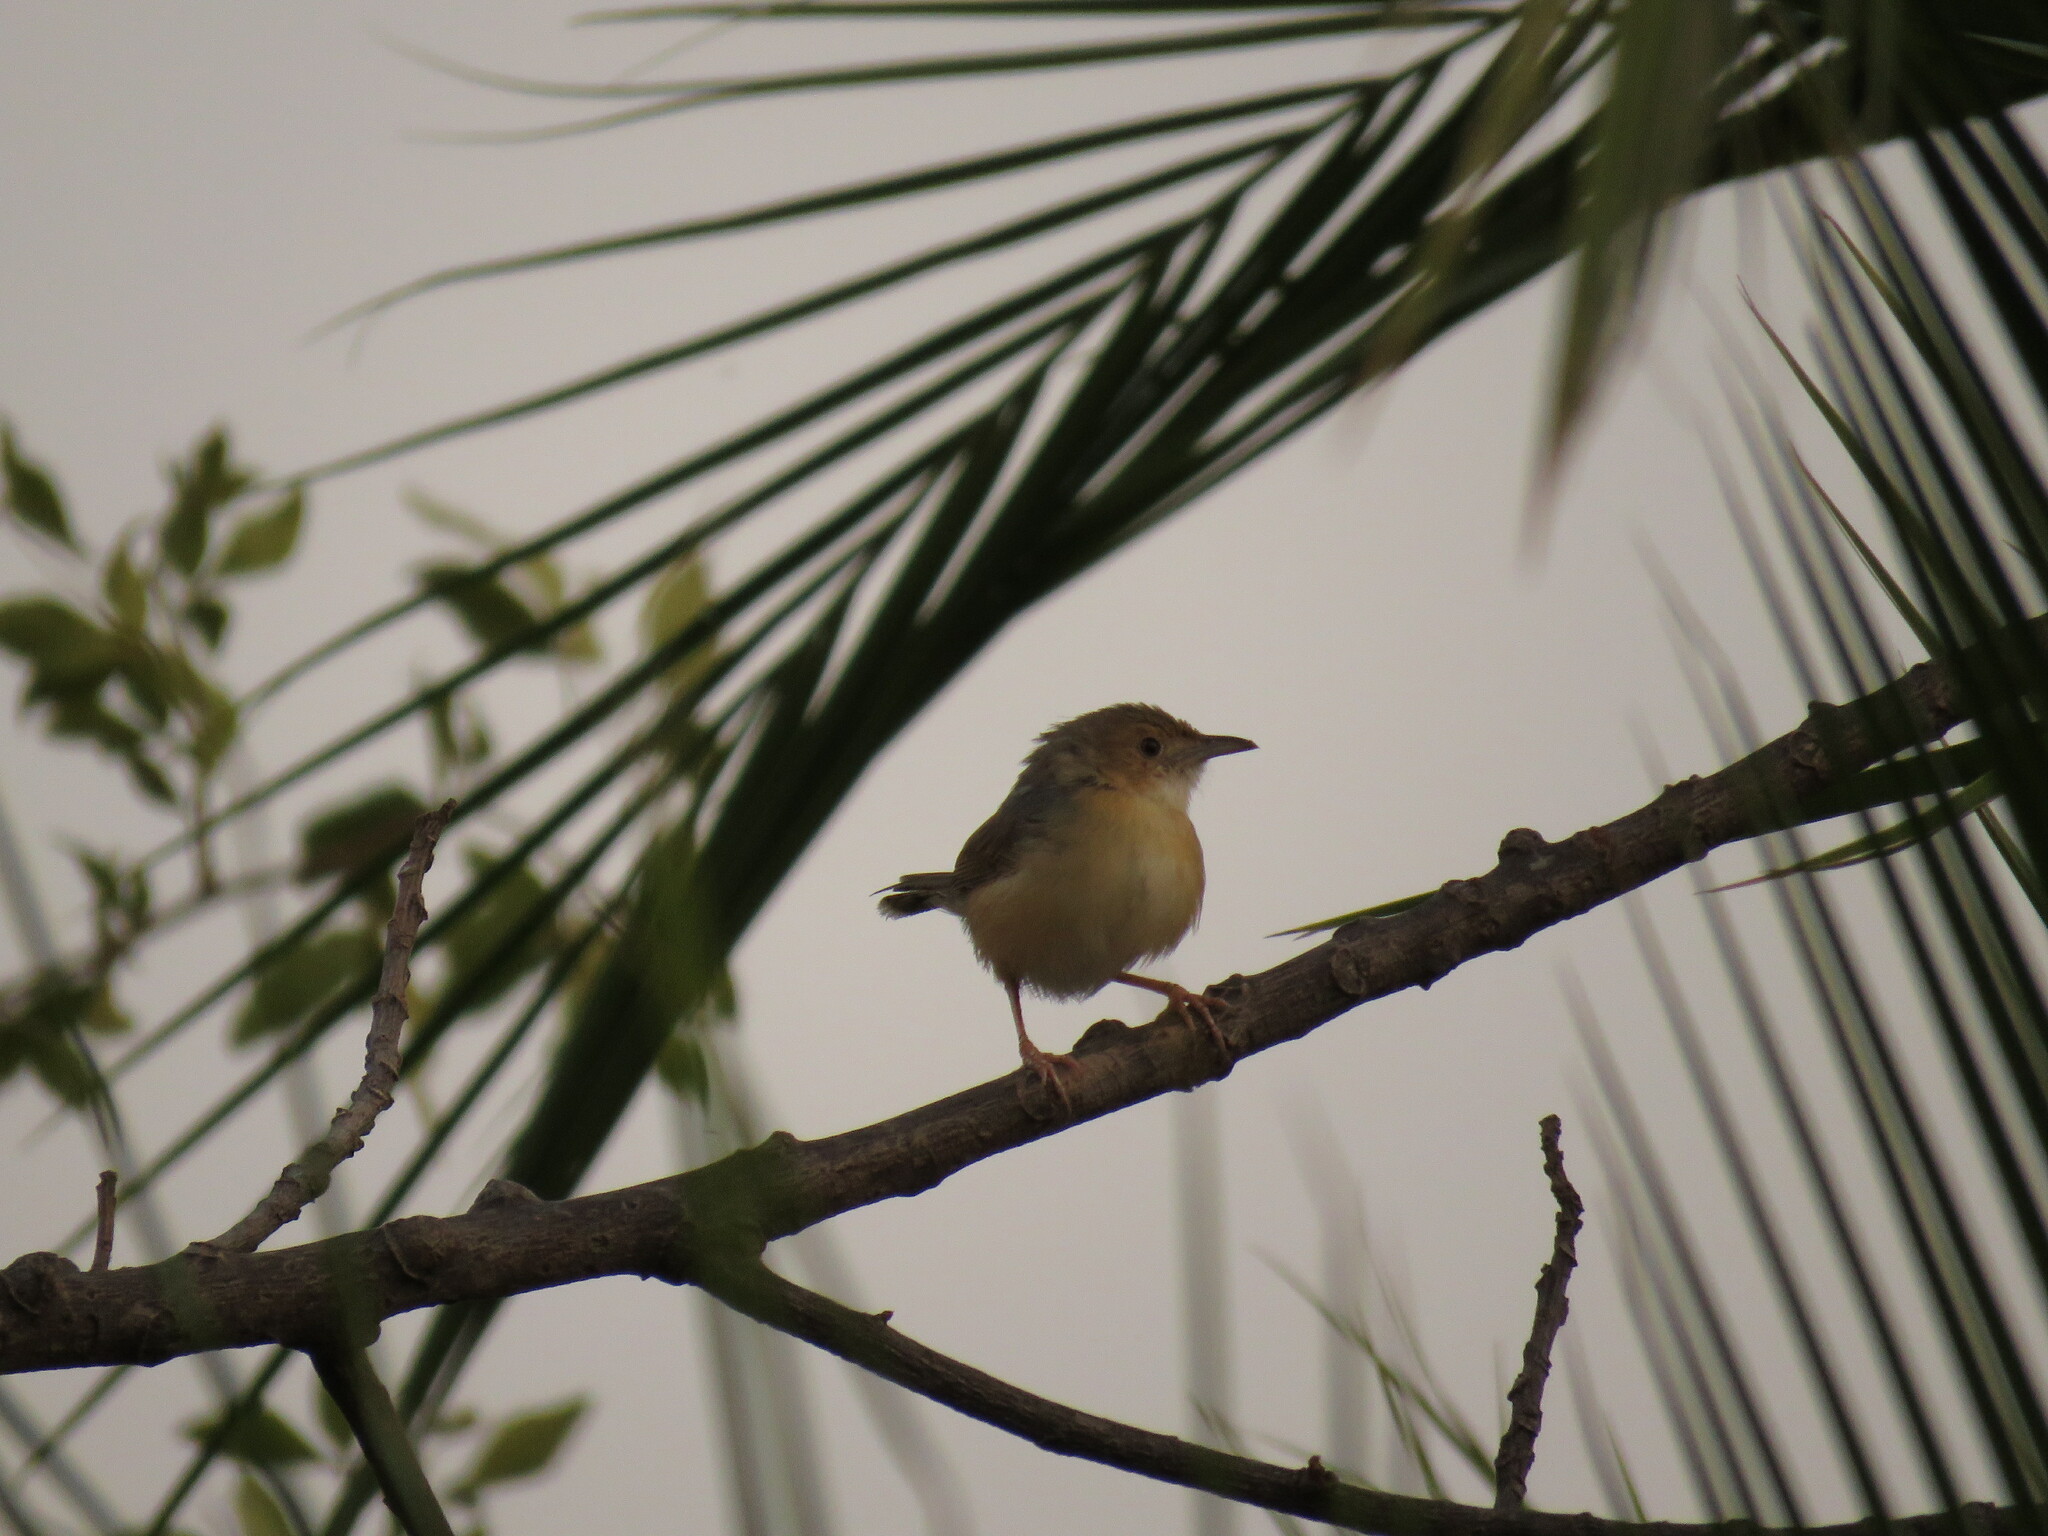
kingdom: Animalia
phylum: Chordata
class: Aves
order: Passeriformes
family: Cisticolidae
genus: Cisticola
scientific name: Cisticola erythrops
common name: Red-faced cisticola
